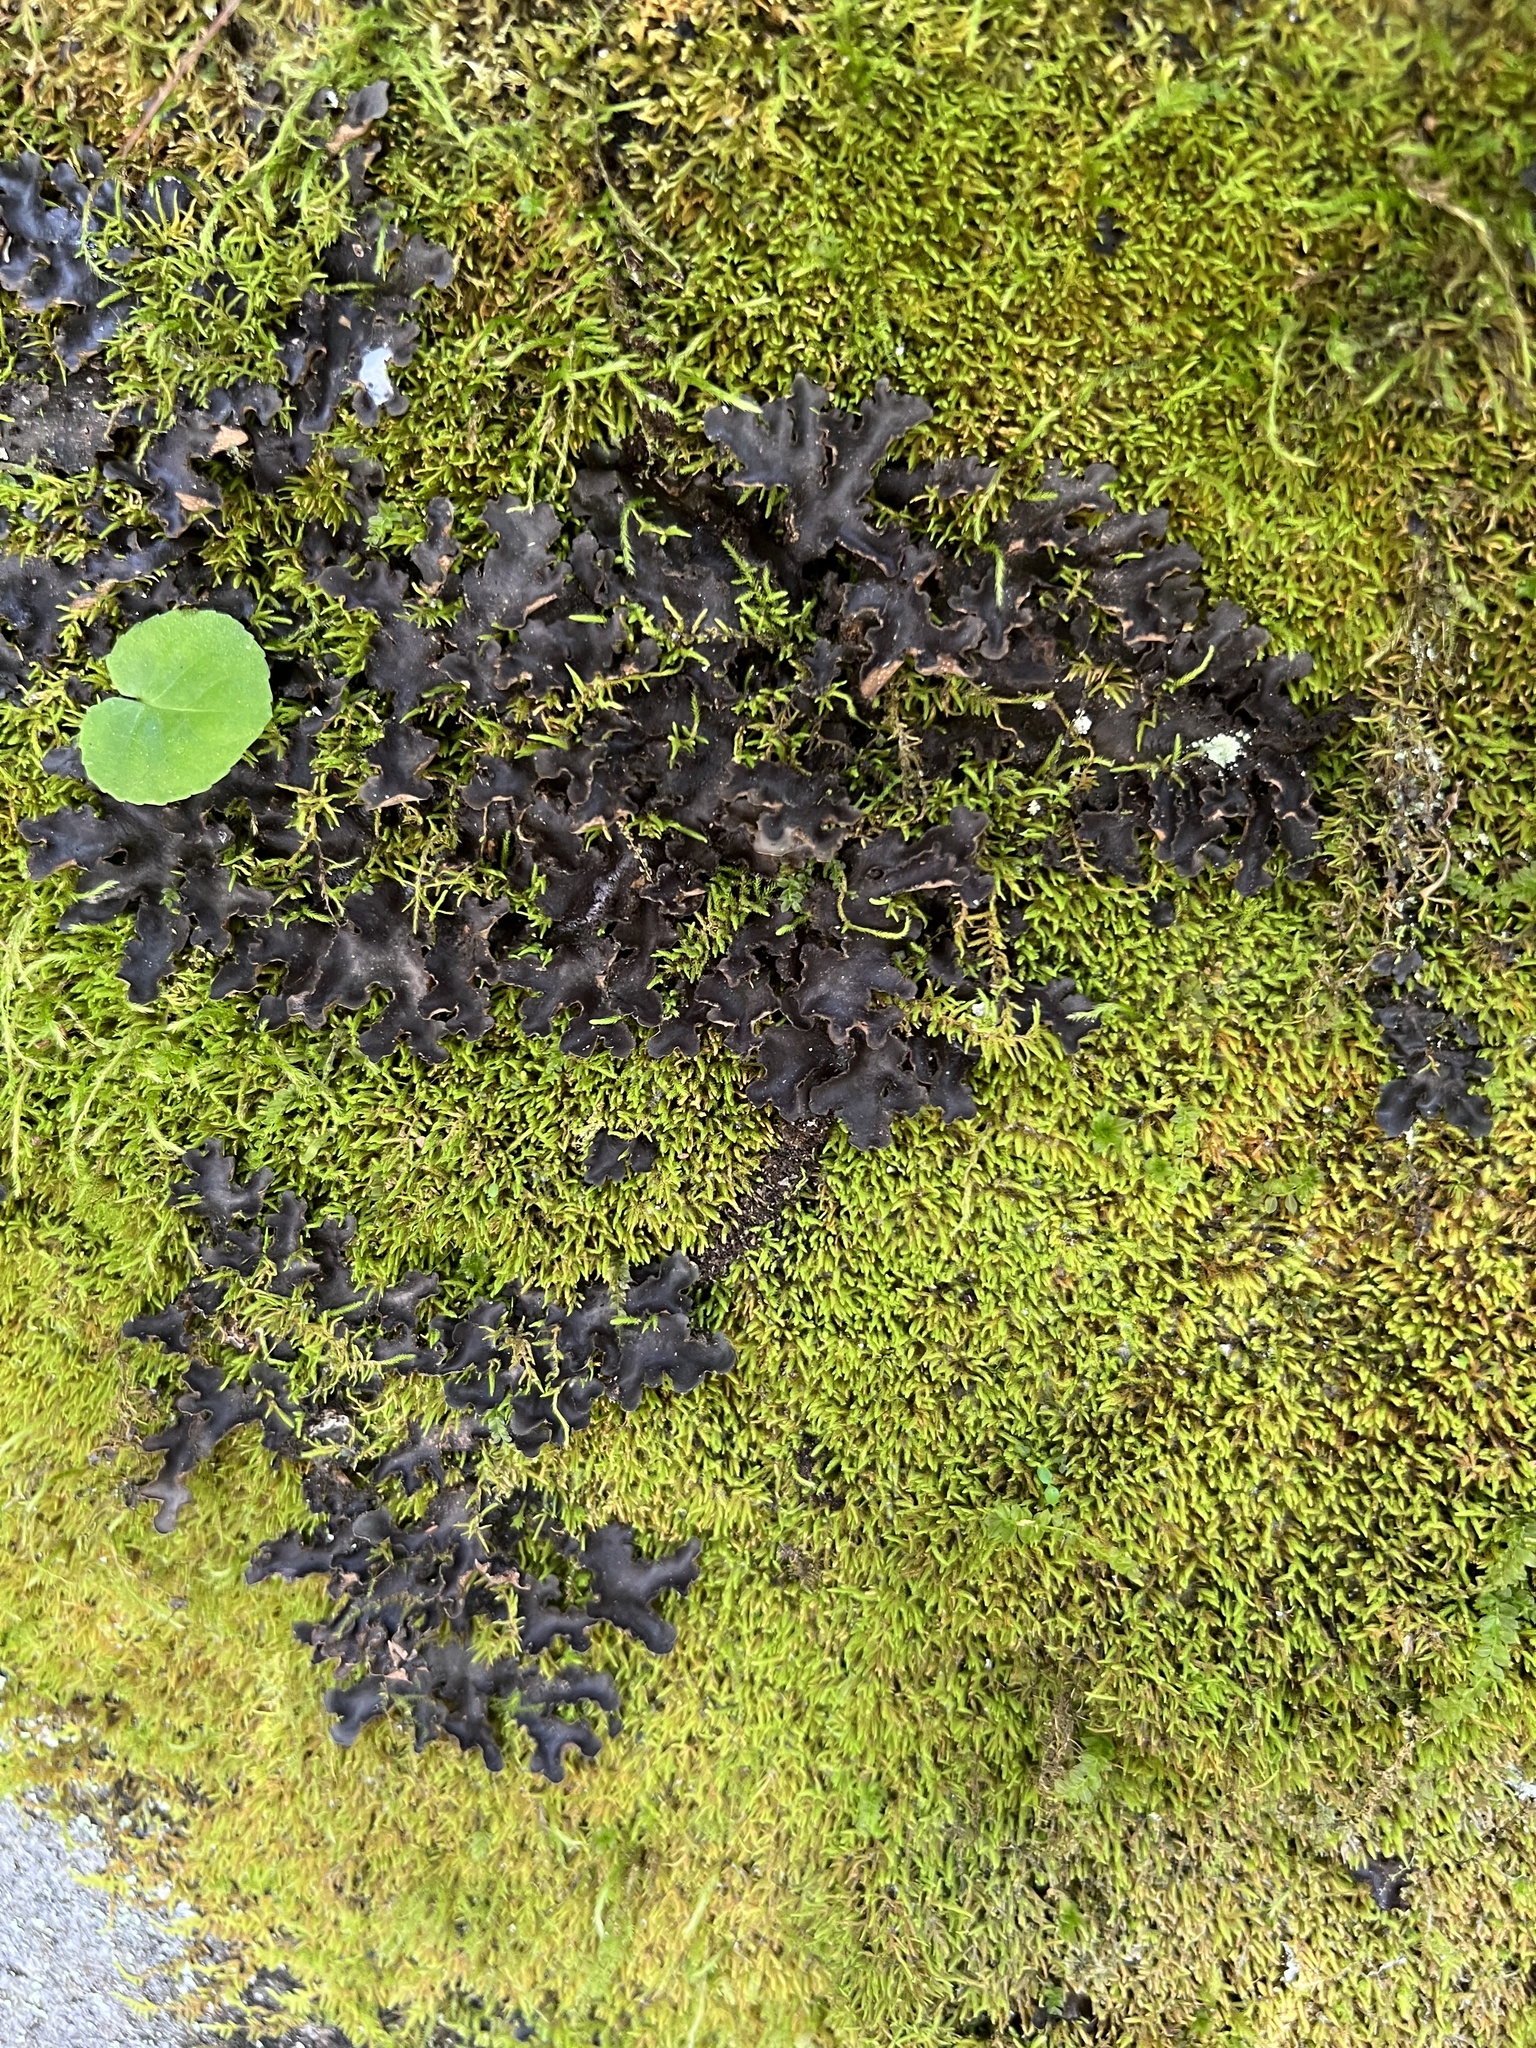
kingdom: Fungi
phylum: Ascomycota
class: Lecanoromycetes
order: Peltigerales
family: Lobariaceae
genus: Sticta
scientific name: Sticta beauvoisii
